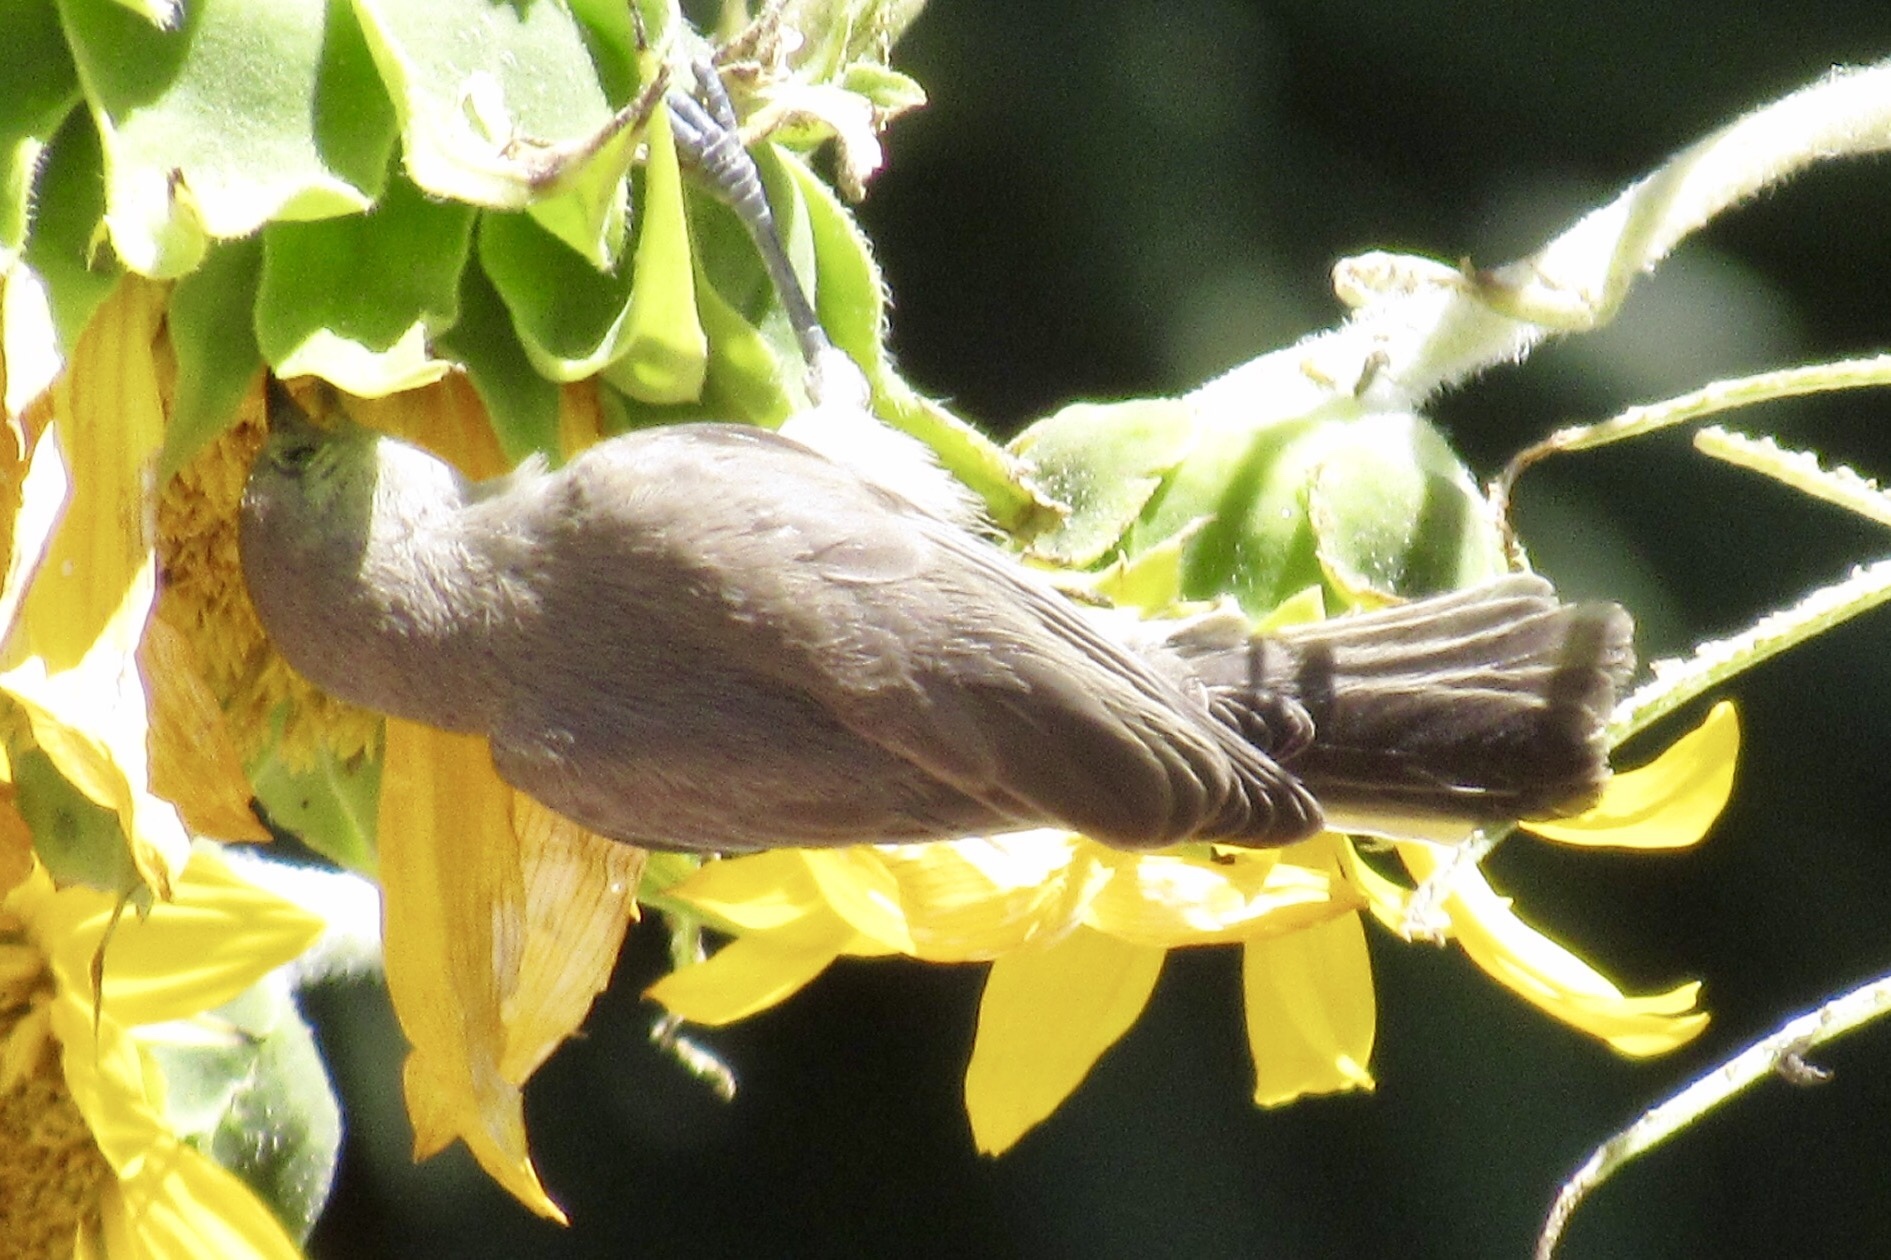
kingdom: Animalia
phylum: Chordata
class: Aves
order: Passeriformes
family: Remizidae
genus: Auriparus
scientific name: Auriparus flaviceps
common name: Verdin
